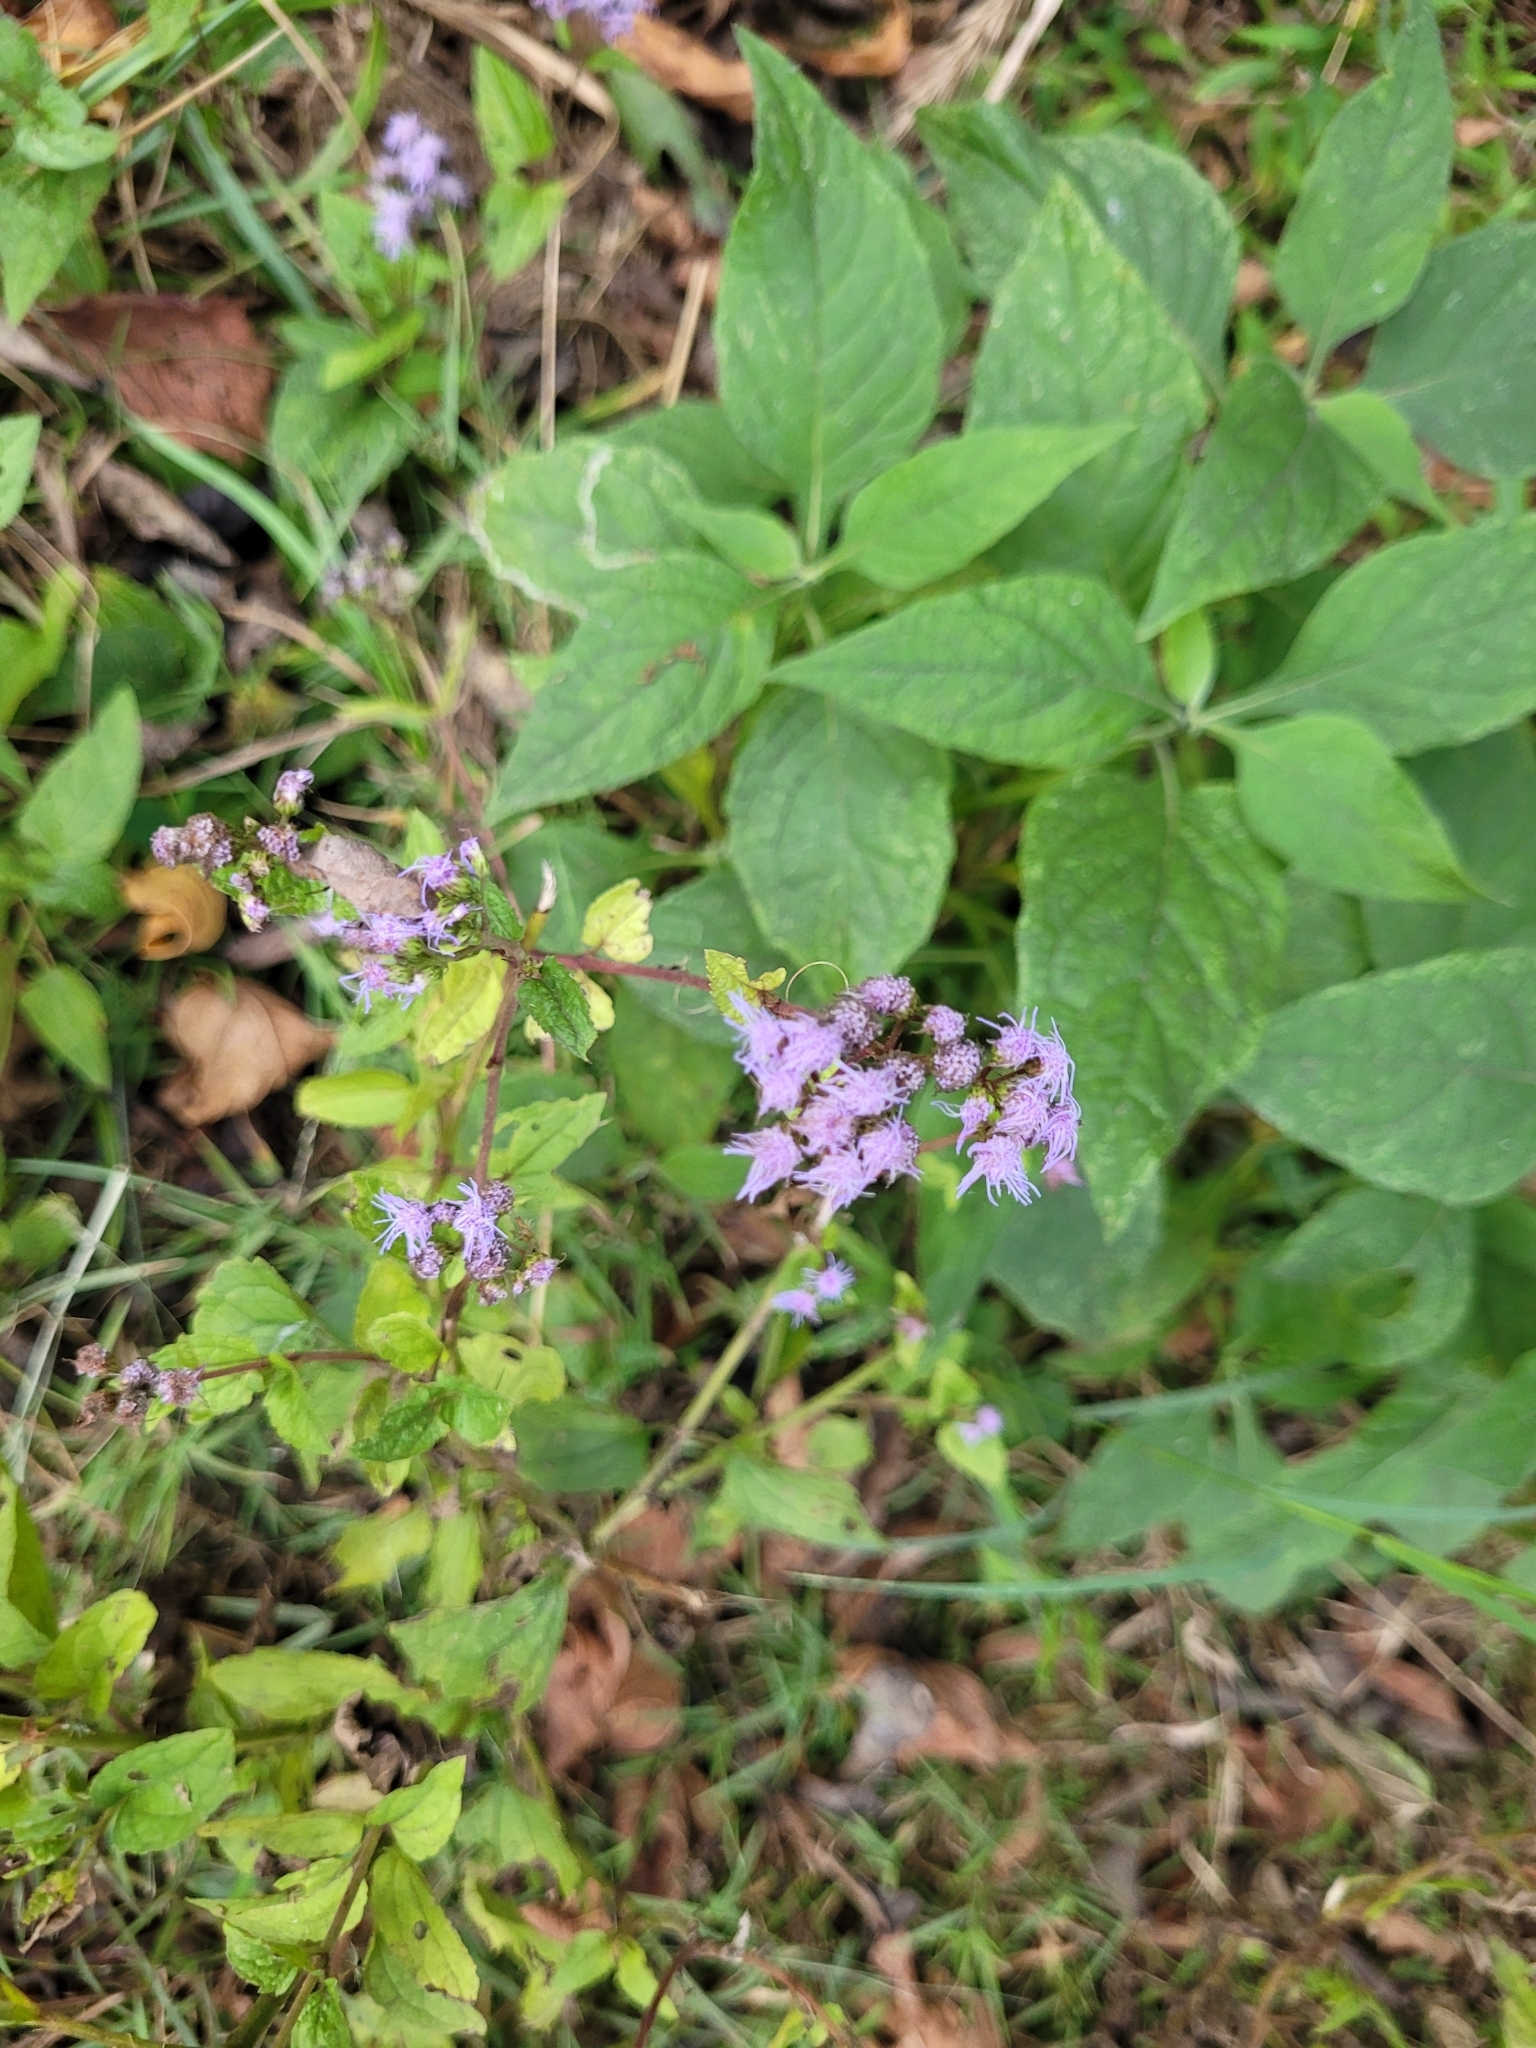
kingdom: Plantae
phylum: Tracheophyta
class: Magnoliopsida
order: Asterales
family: Asteraceae
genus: Conoclinium
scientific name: Conoclinium coelestinum
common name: Blue mistflower
